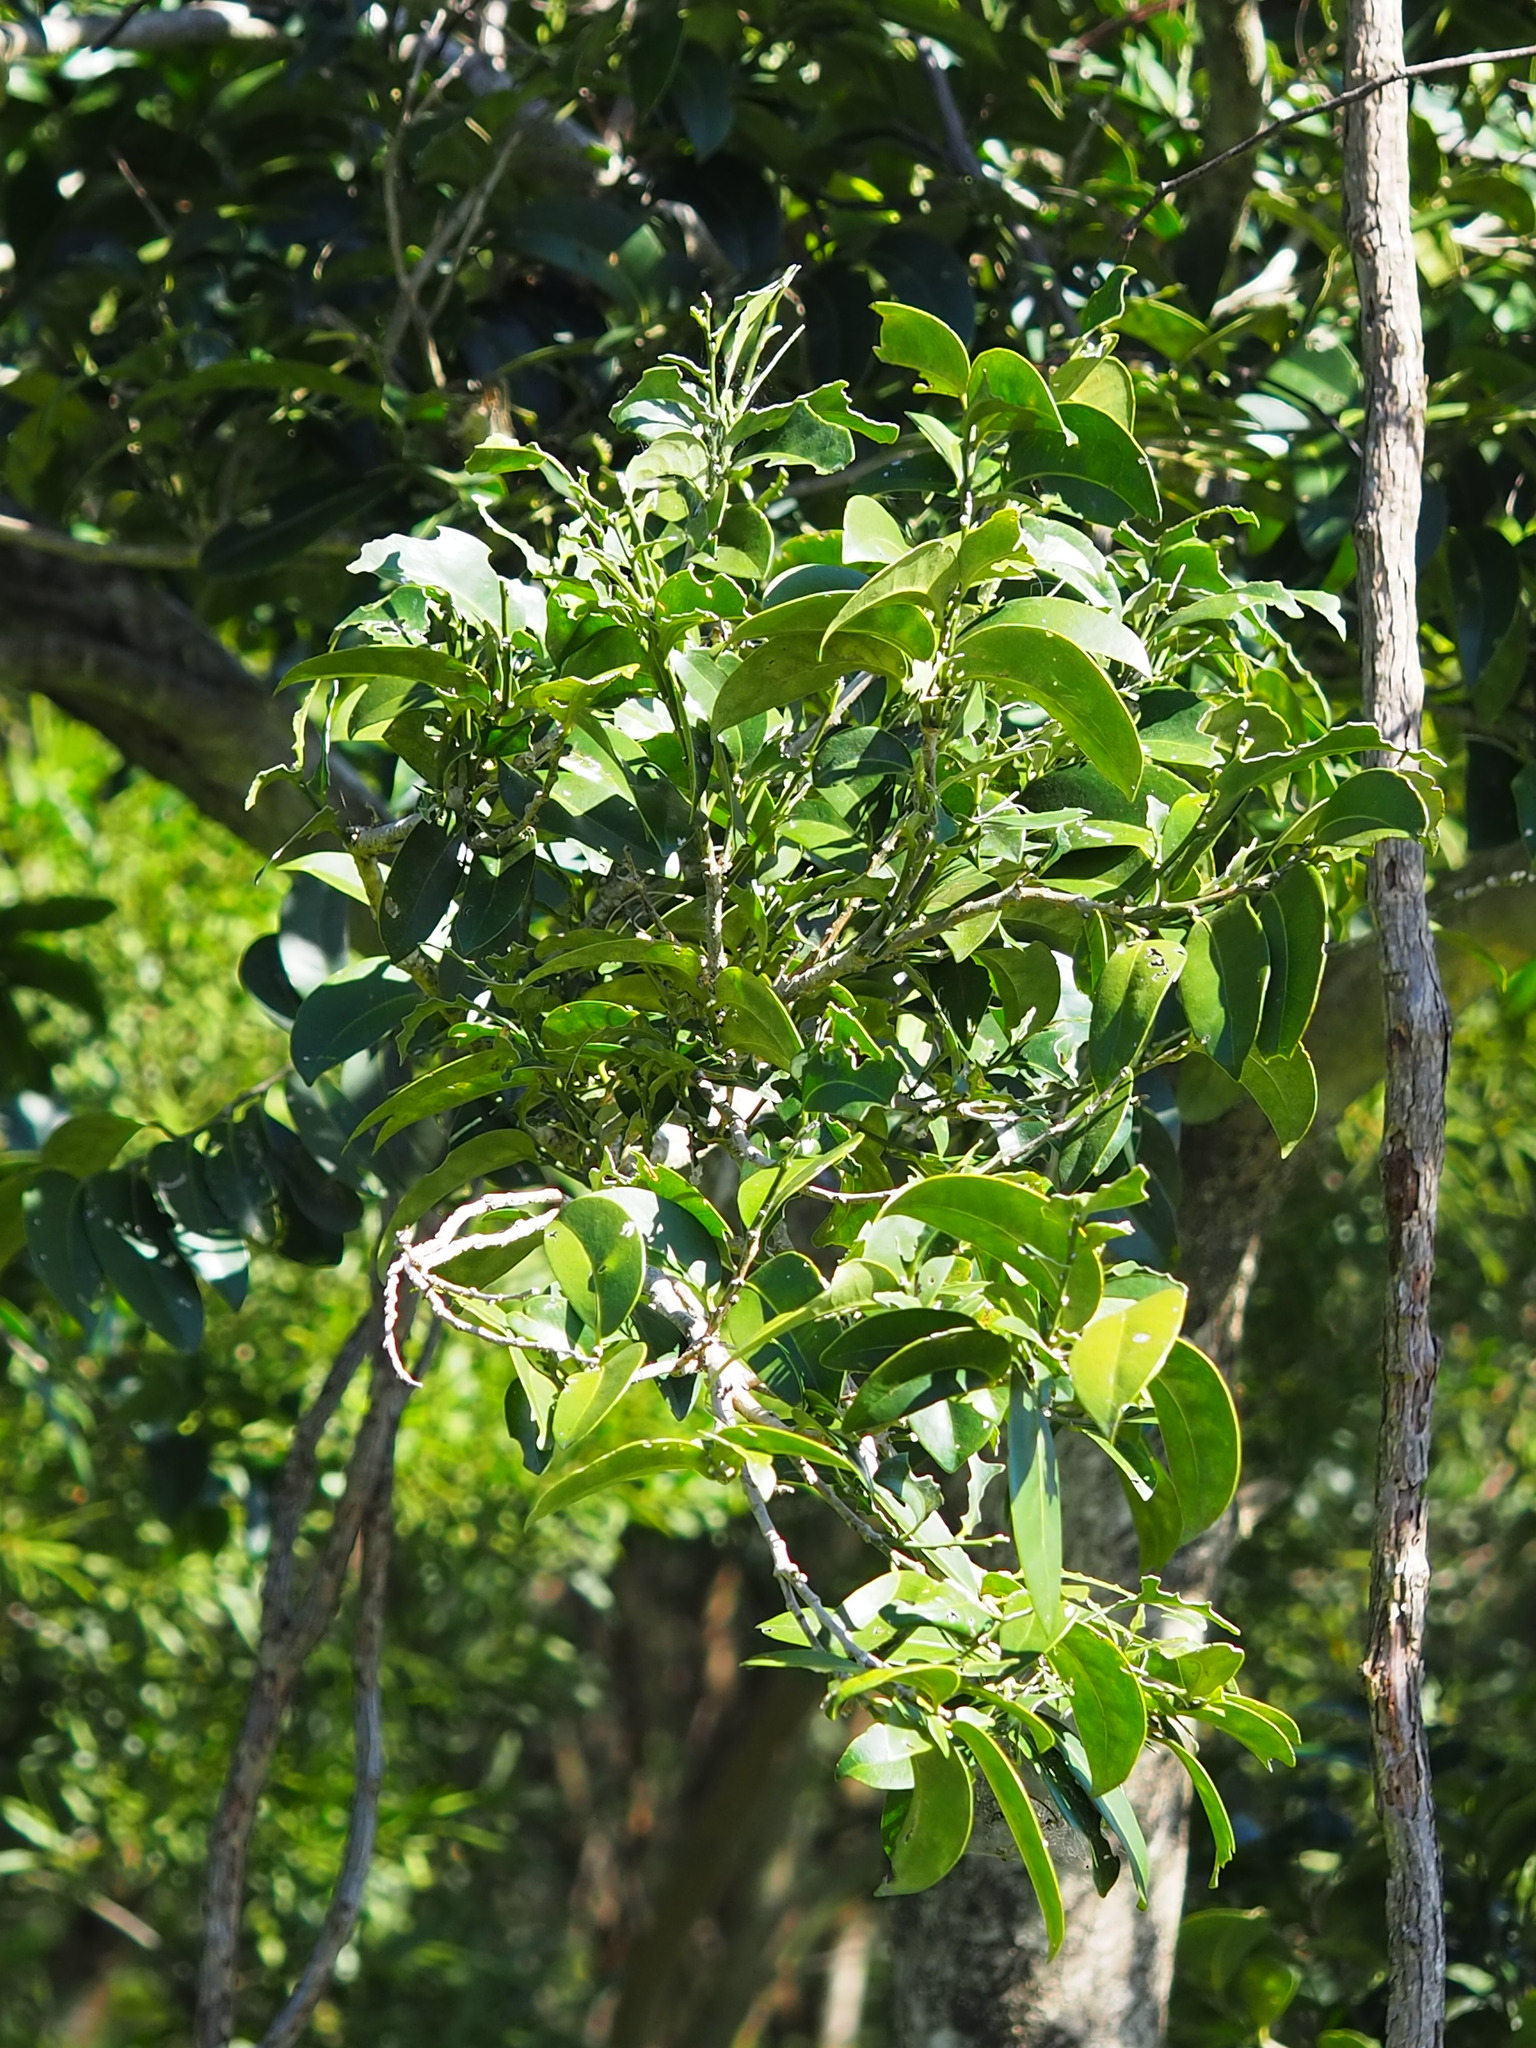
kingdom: Plantae
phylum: Tracheophyta
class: Magnoliopsida
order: Malpighiales
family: Putranjivaceae
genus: Drypetes
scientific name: Drypetes littoralis
